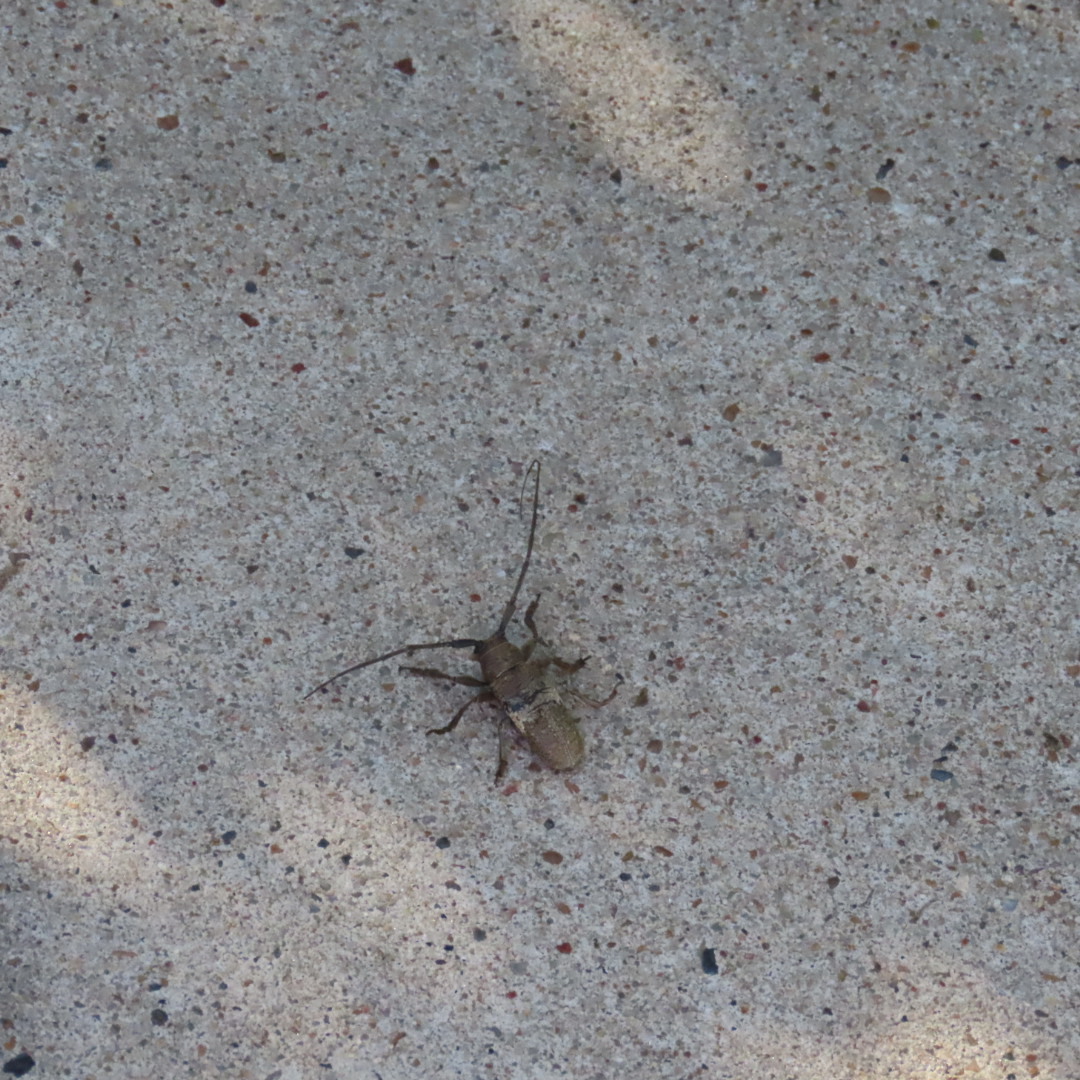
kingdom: Animalia
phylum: Arthropoda
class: Insecta
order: Coleoptera
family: Cerambycidae
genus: Oncideres
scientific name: Oncideres pustulata
